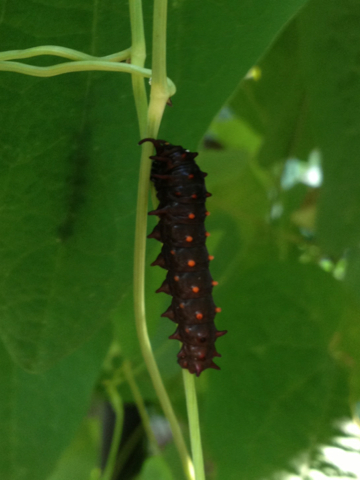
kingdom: Animalia
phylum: Arthropoda
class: Insecta
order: Lepidoptera
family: Papilionidae
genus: Battus
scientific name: Battus philenor
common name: Pipevine swallowtail
